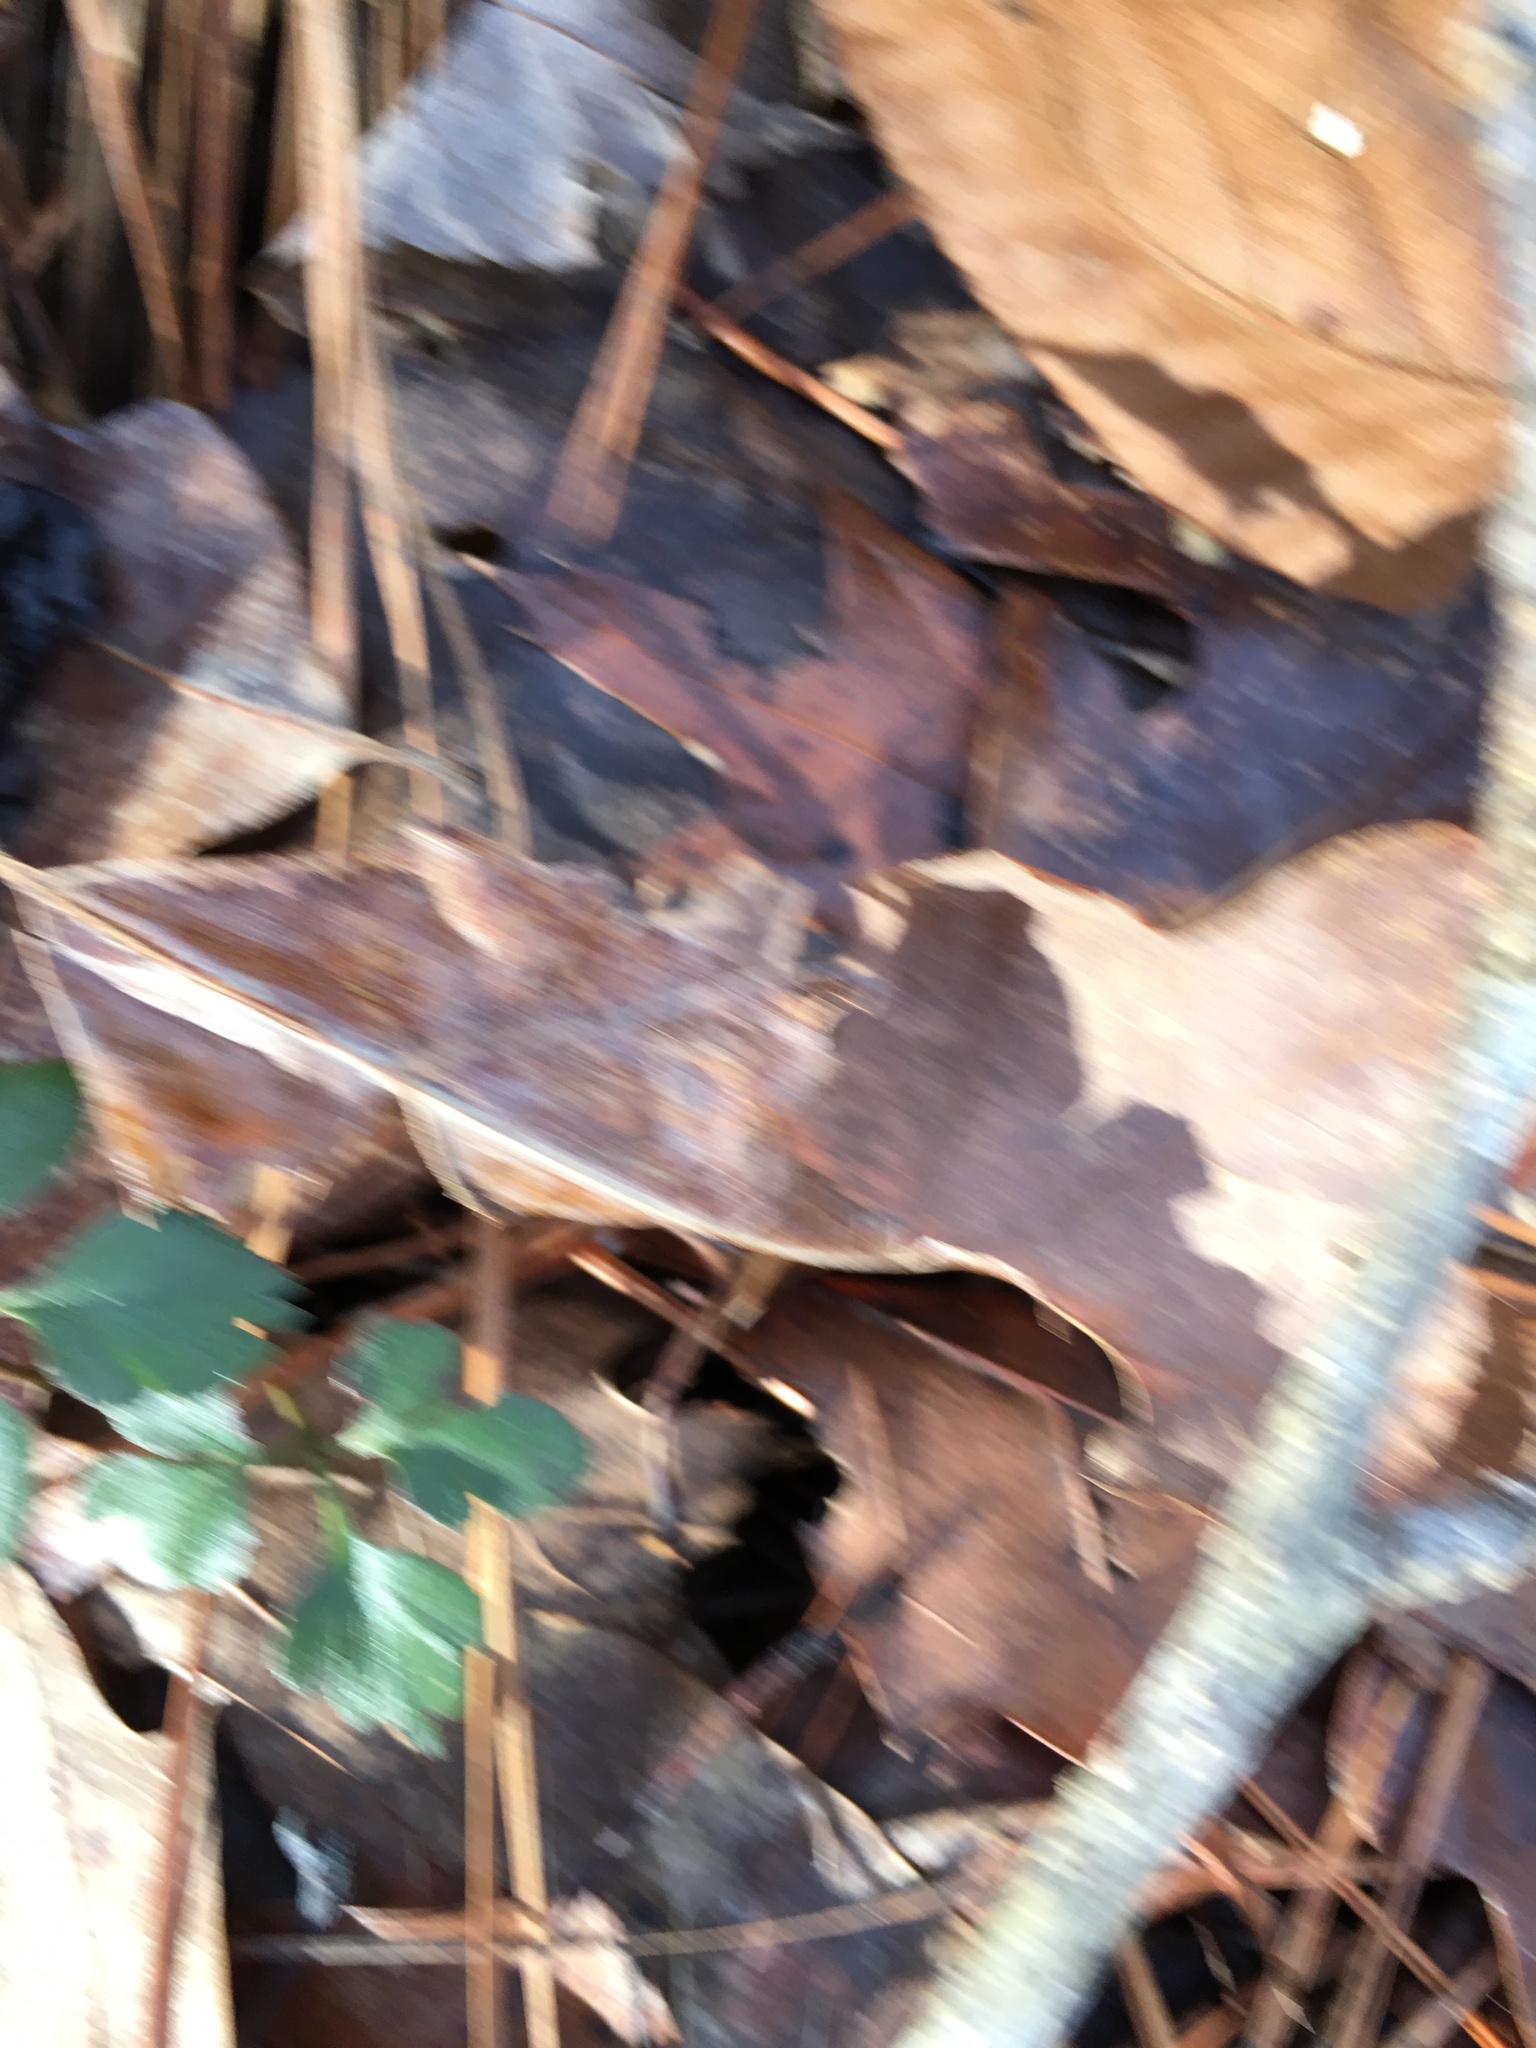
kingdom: Plantae
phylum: Tracheophyta
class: Polypodiopsida
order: Ophioglossales
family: Ophioglossaceae
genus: Sceptridium
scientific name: Sceptridium biternatum
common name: Sparse-lobed grapefern
